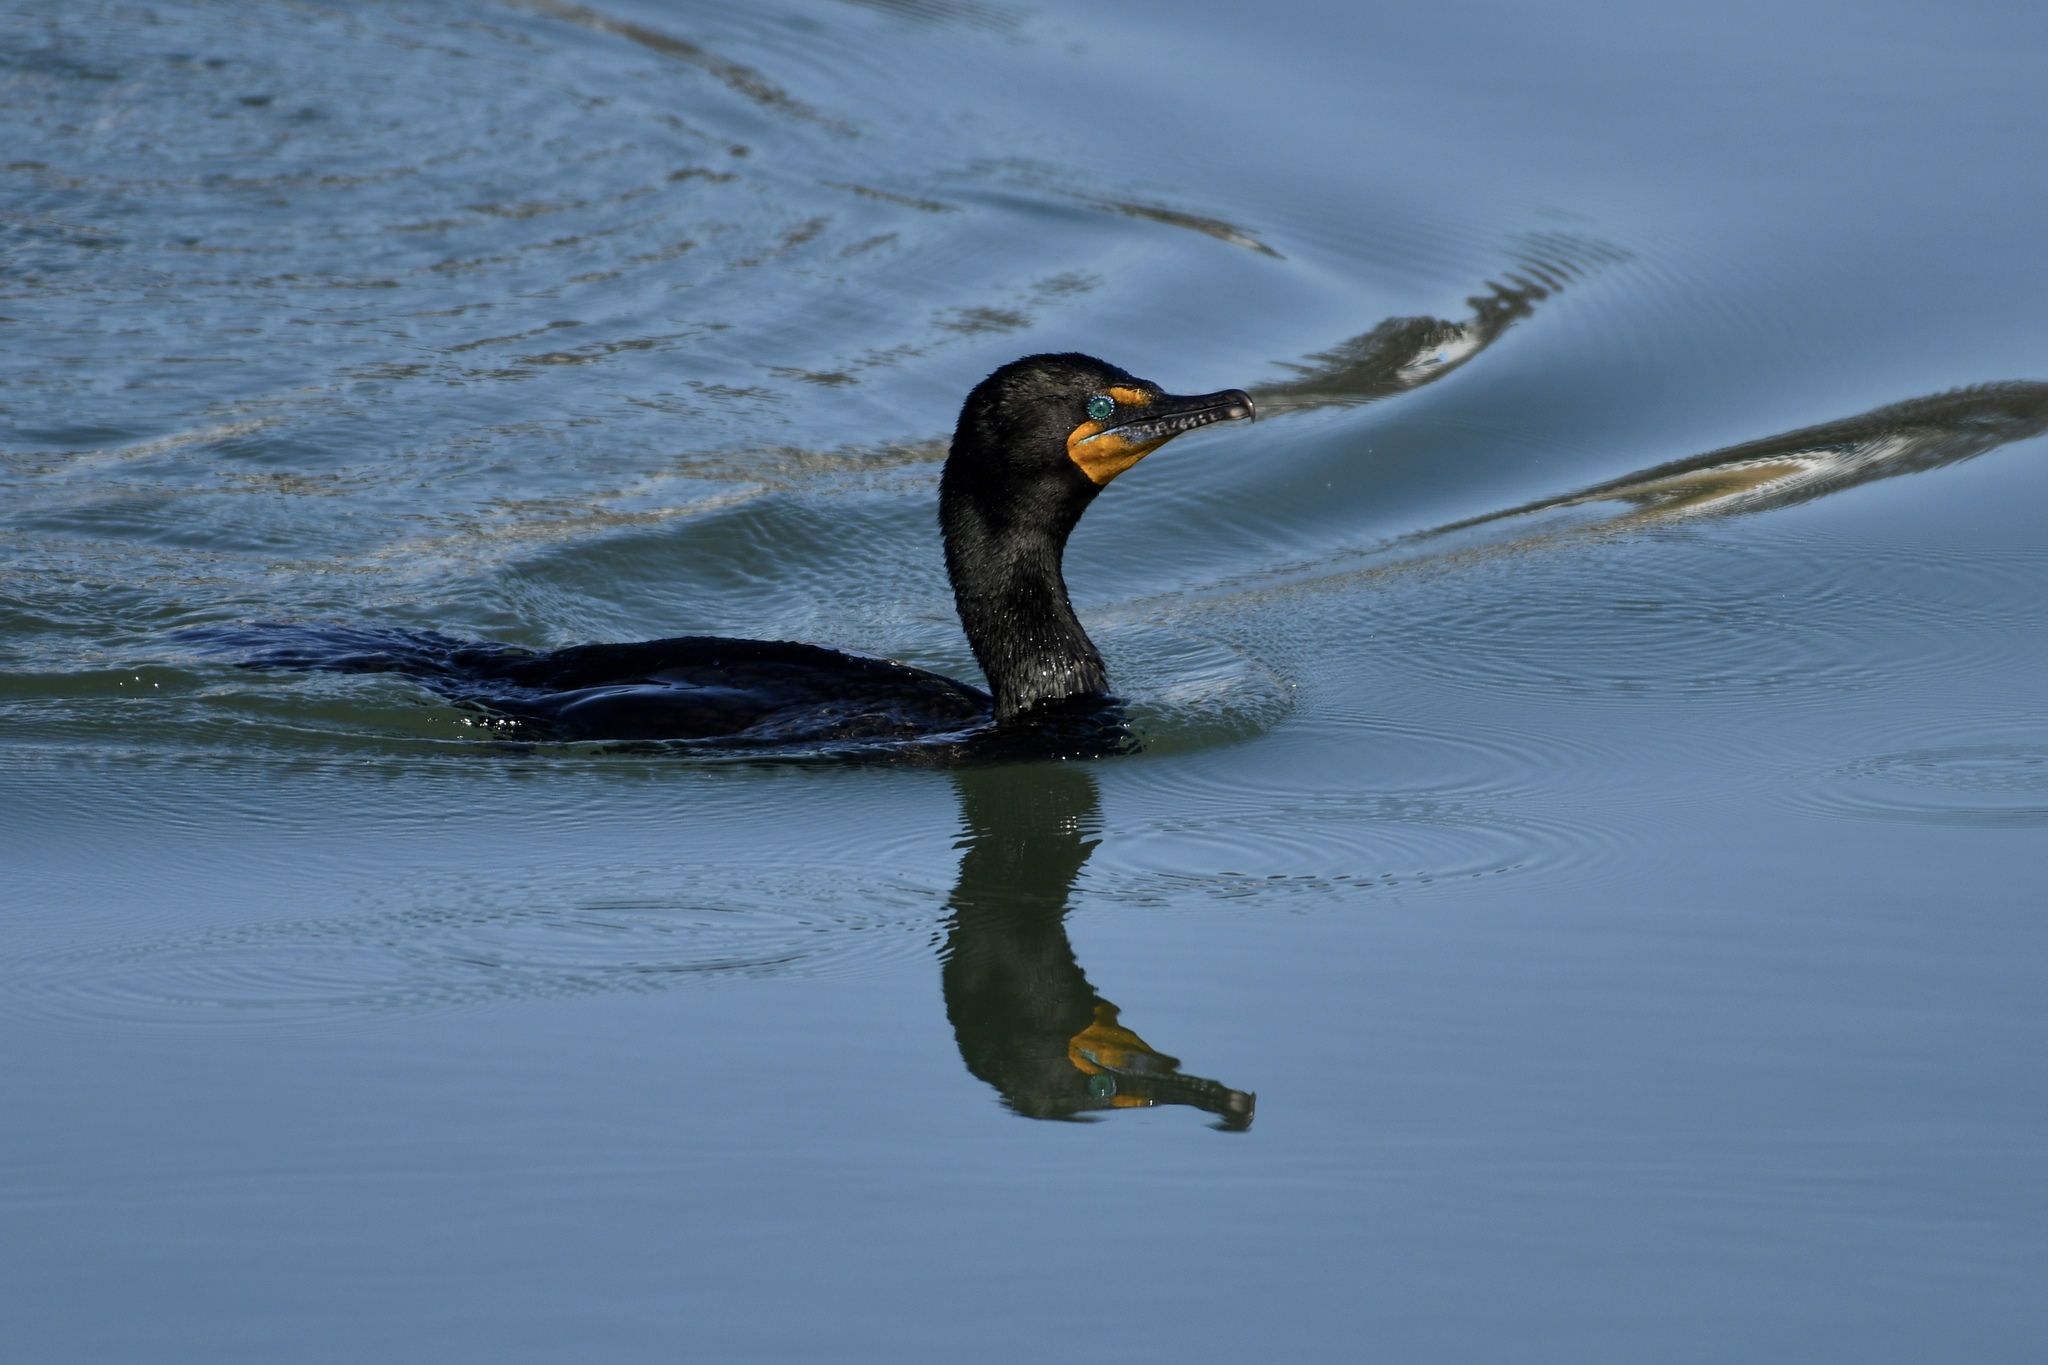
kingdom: Animalia
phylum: Chordata
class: Aves
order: Suliformes
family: Phalacrocoracidae
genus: Phalacrocorax
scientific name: Phalacrocorax auritus
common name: Double-crested cormorant
